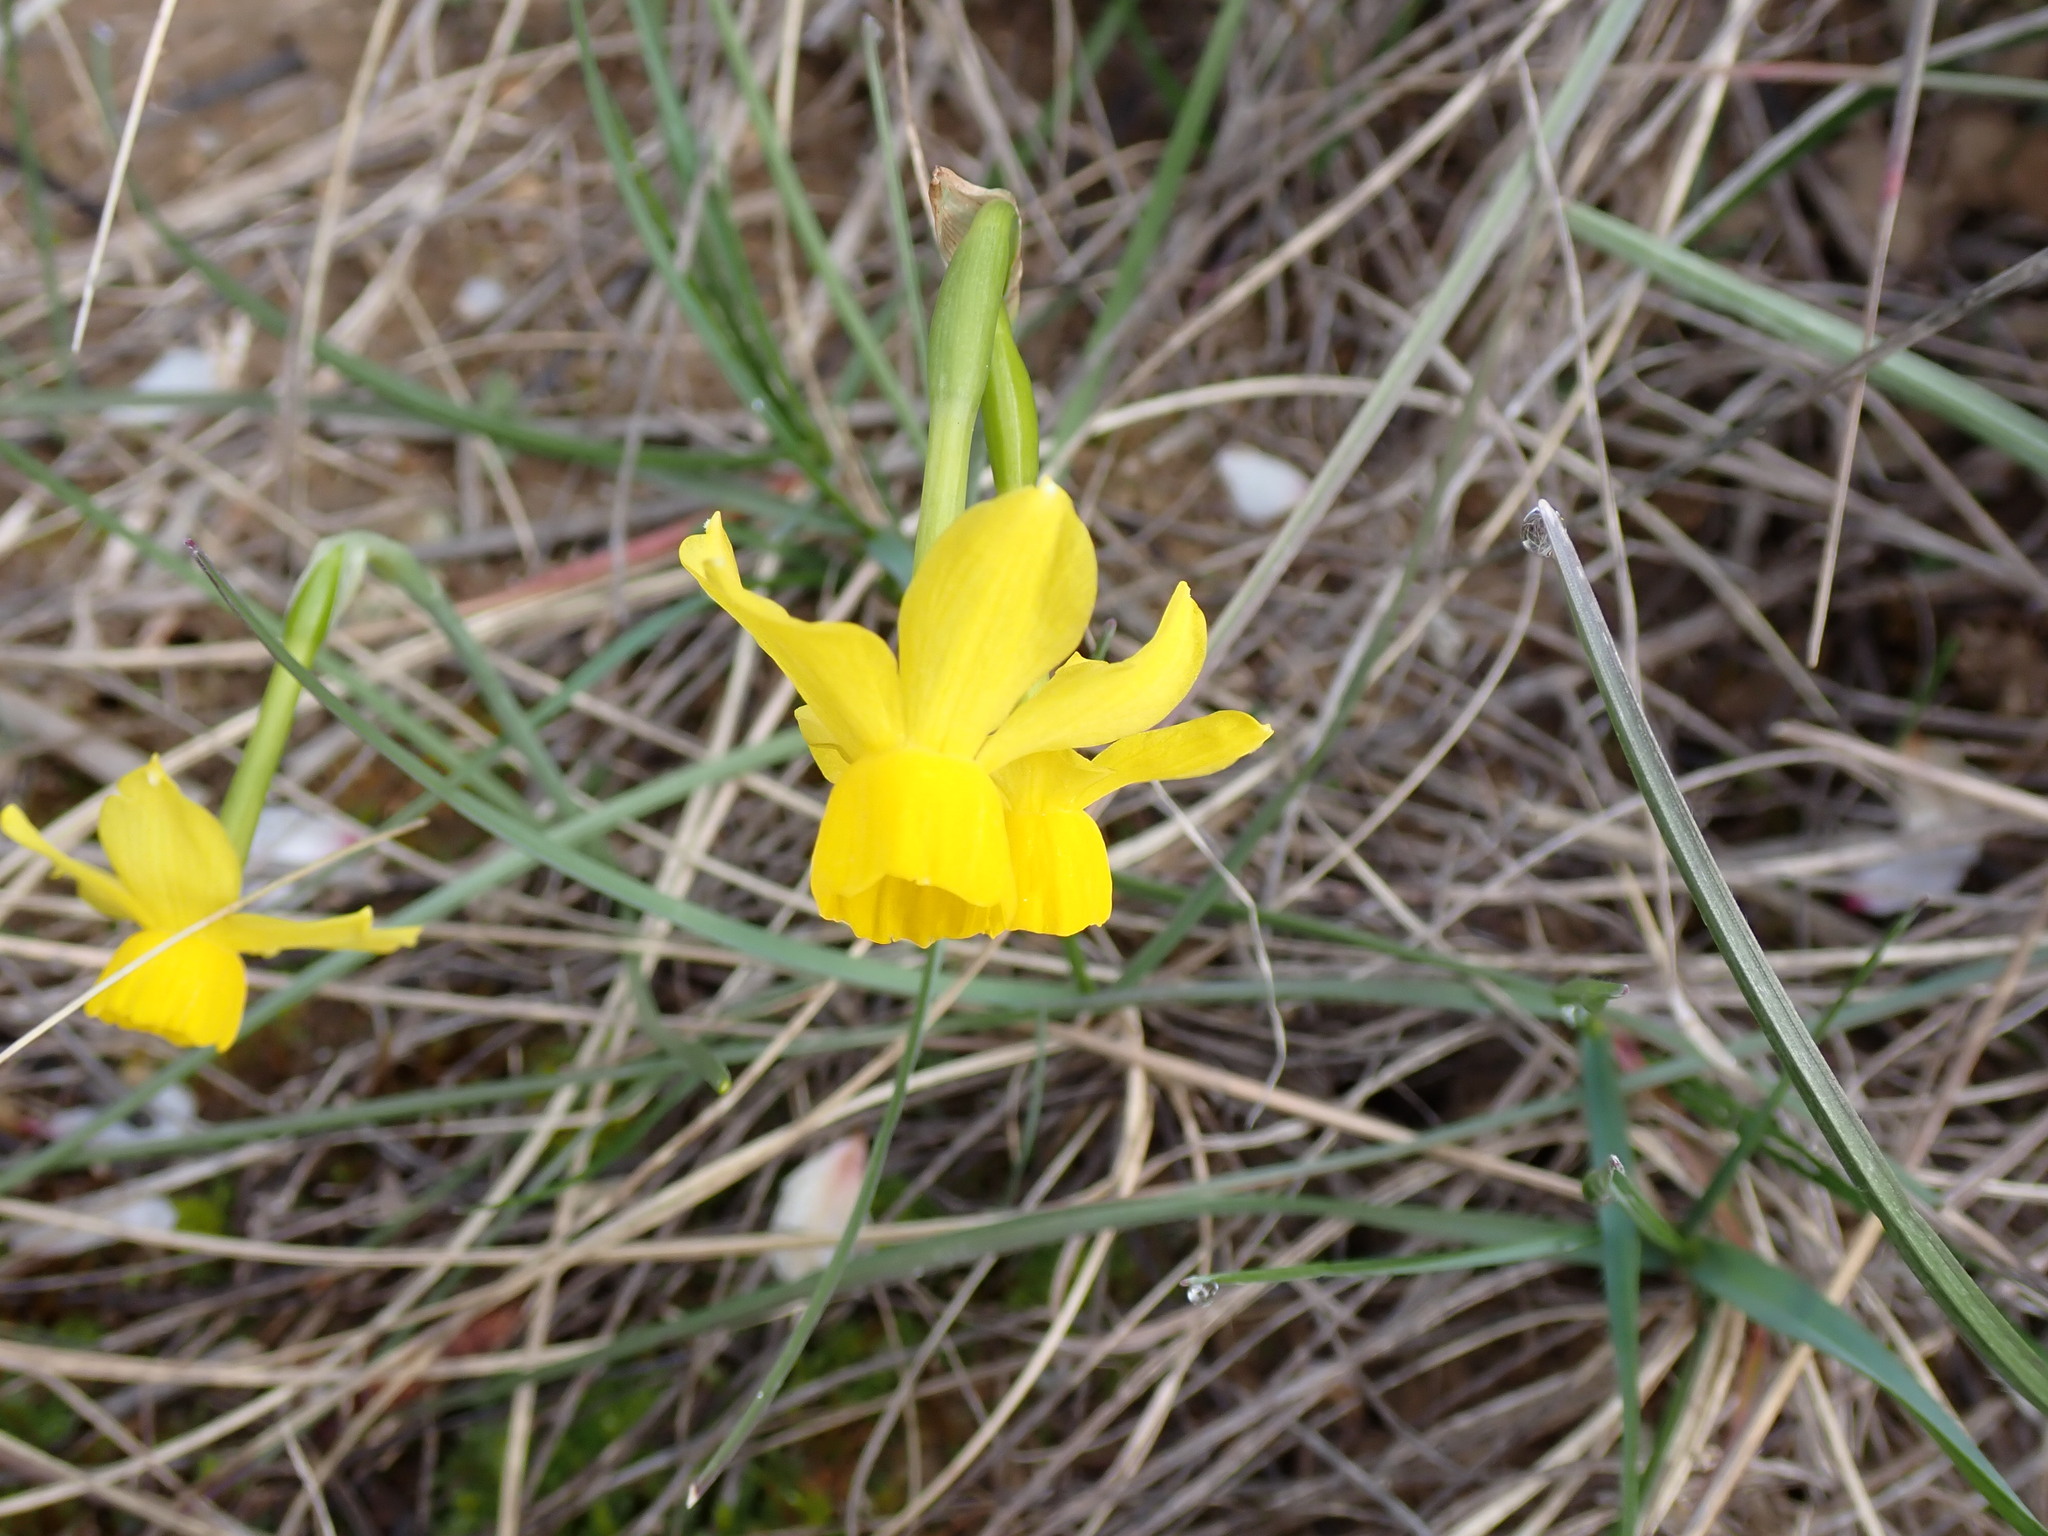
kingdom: Plantae
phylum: Tracheophyta
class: Liliopsida
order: Asparagales
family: Amaryllidaceae
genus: Narcissus
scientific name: Narcissus assoanus
